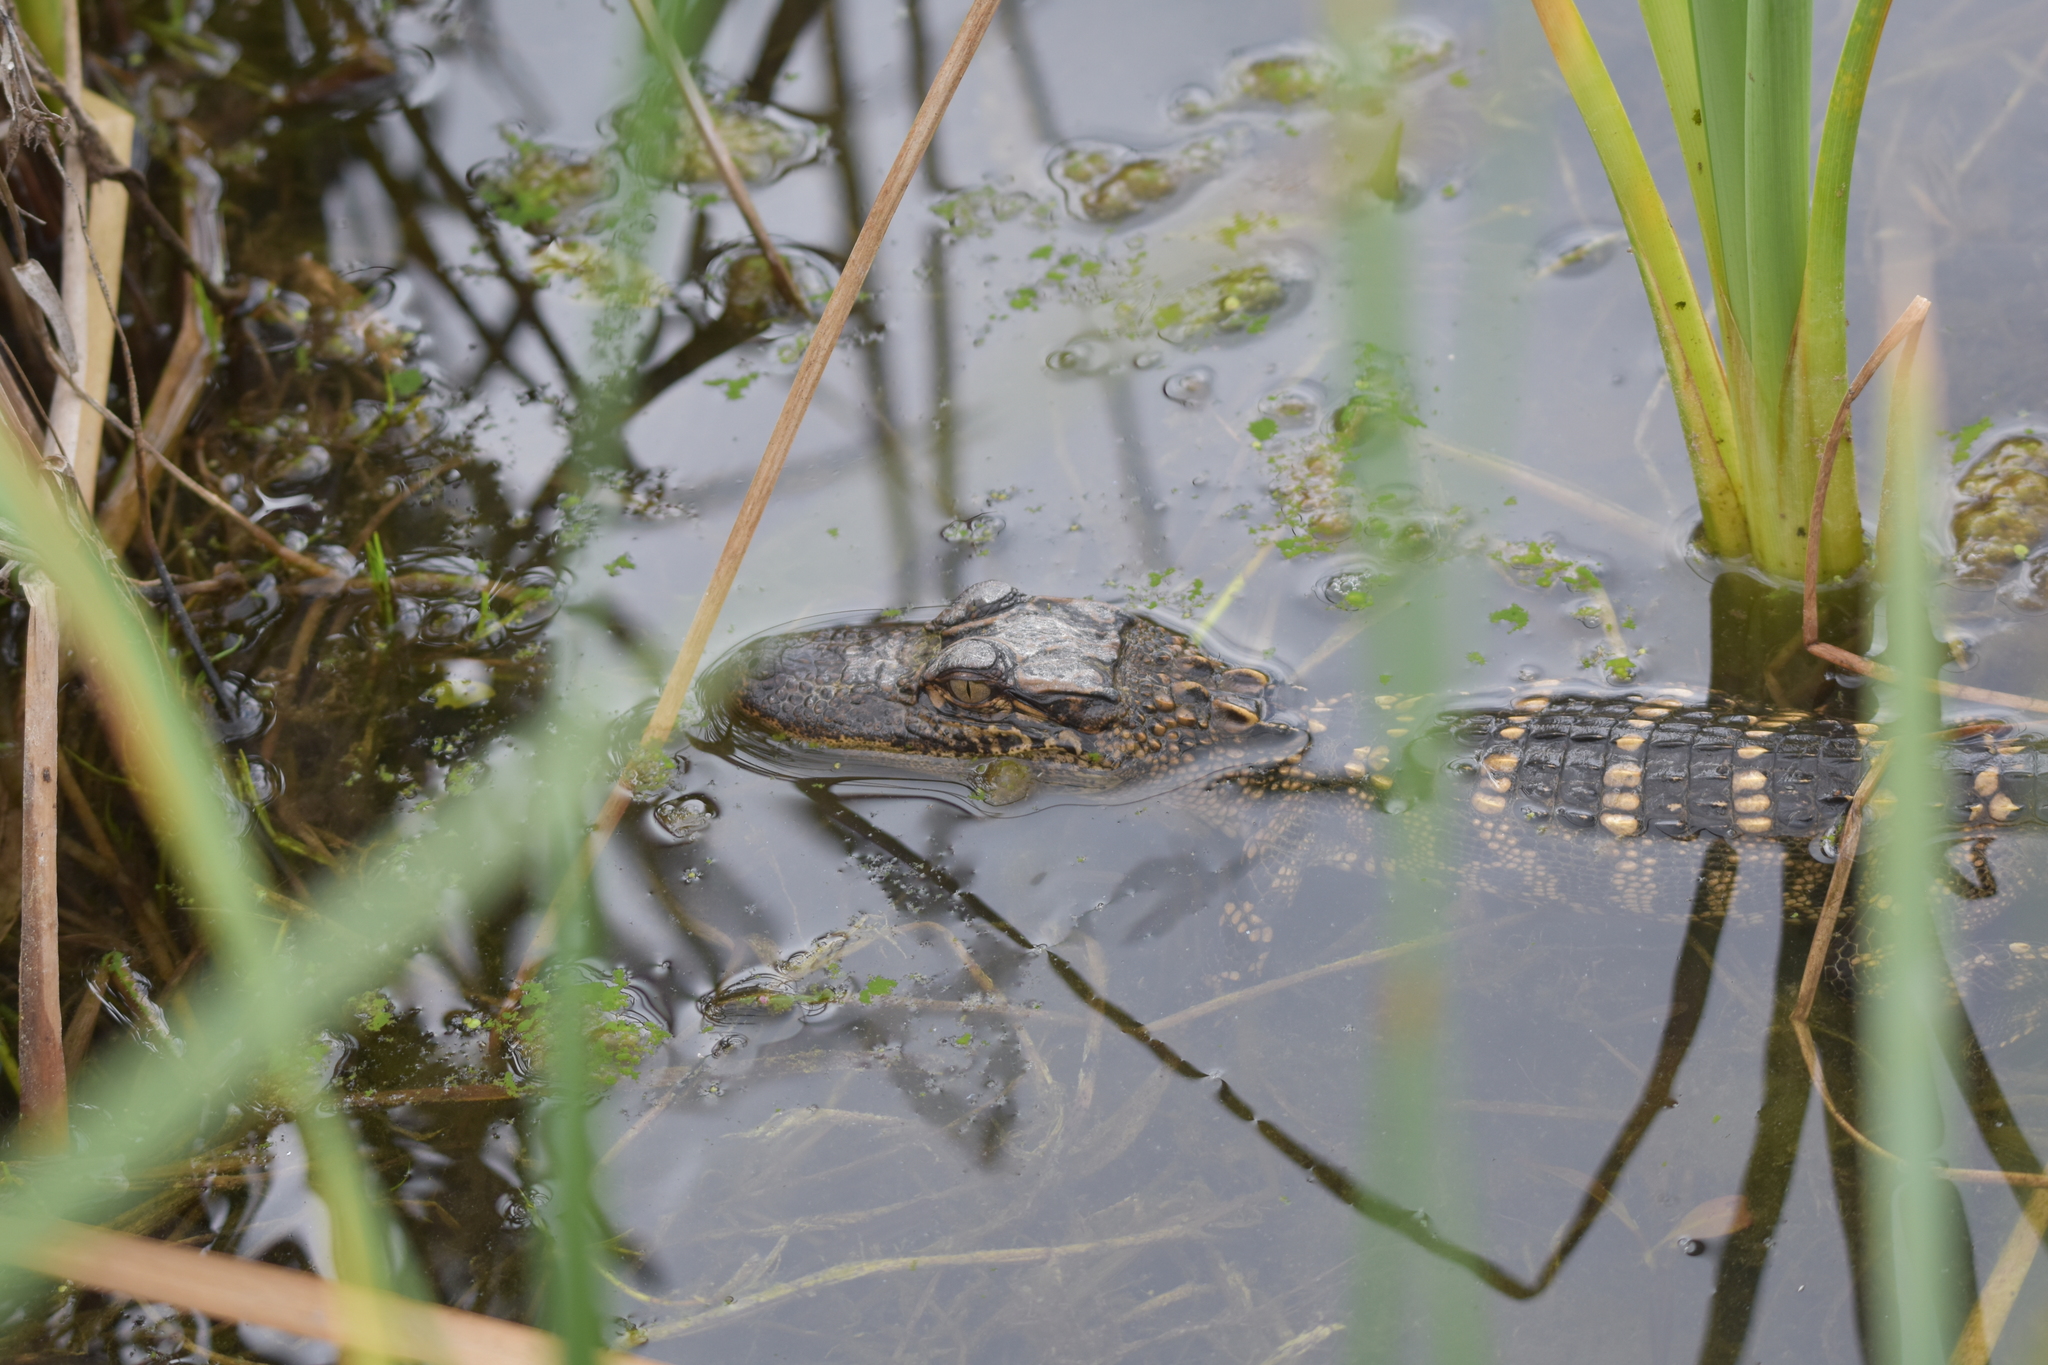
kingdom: Animalia
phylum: Chordata
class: Crocodylia
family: Alligatoridae
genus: Alligator
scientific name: Alligator mississippiensis
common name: American alligator
